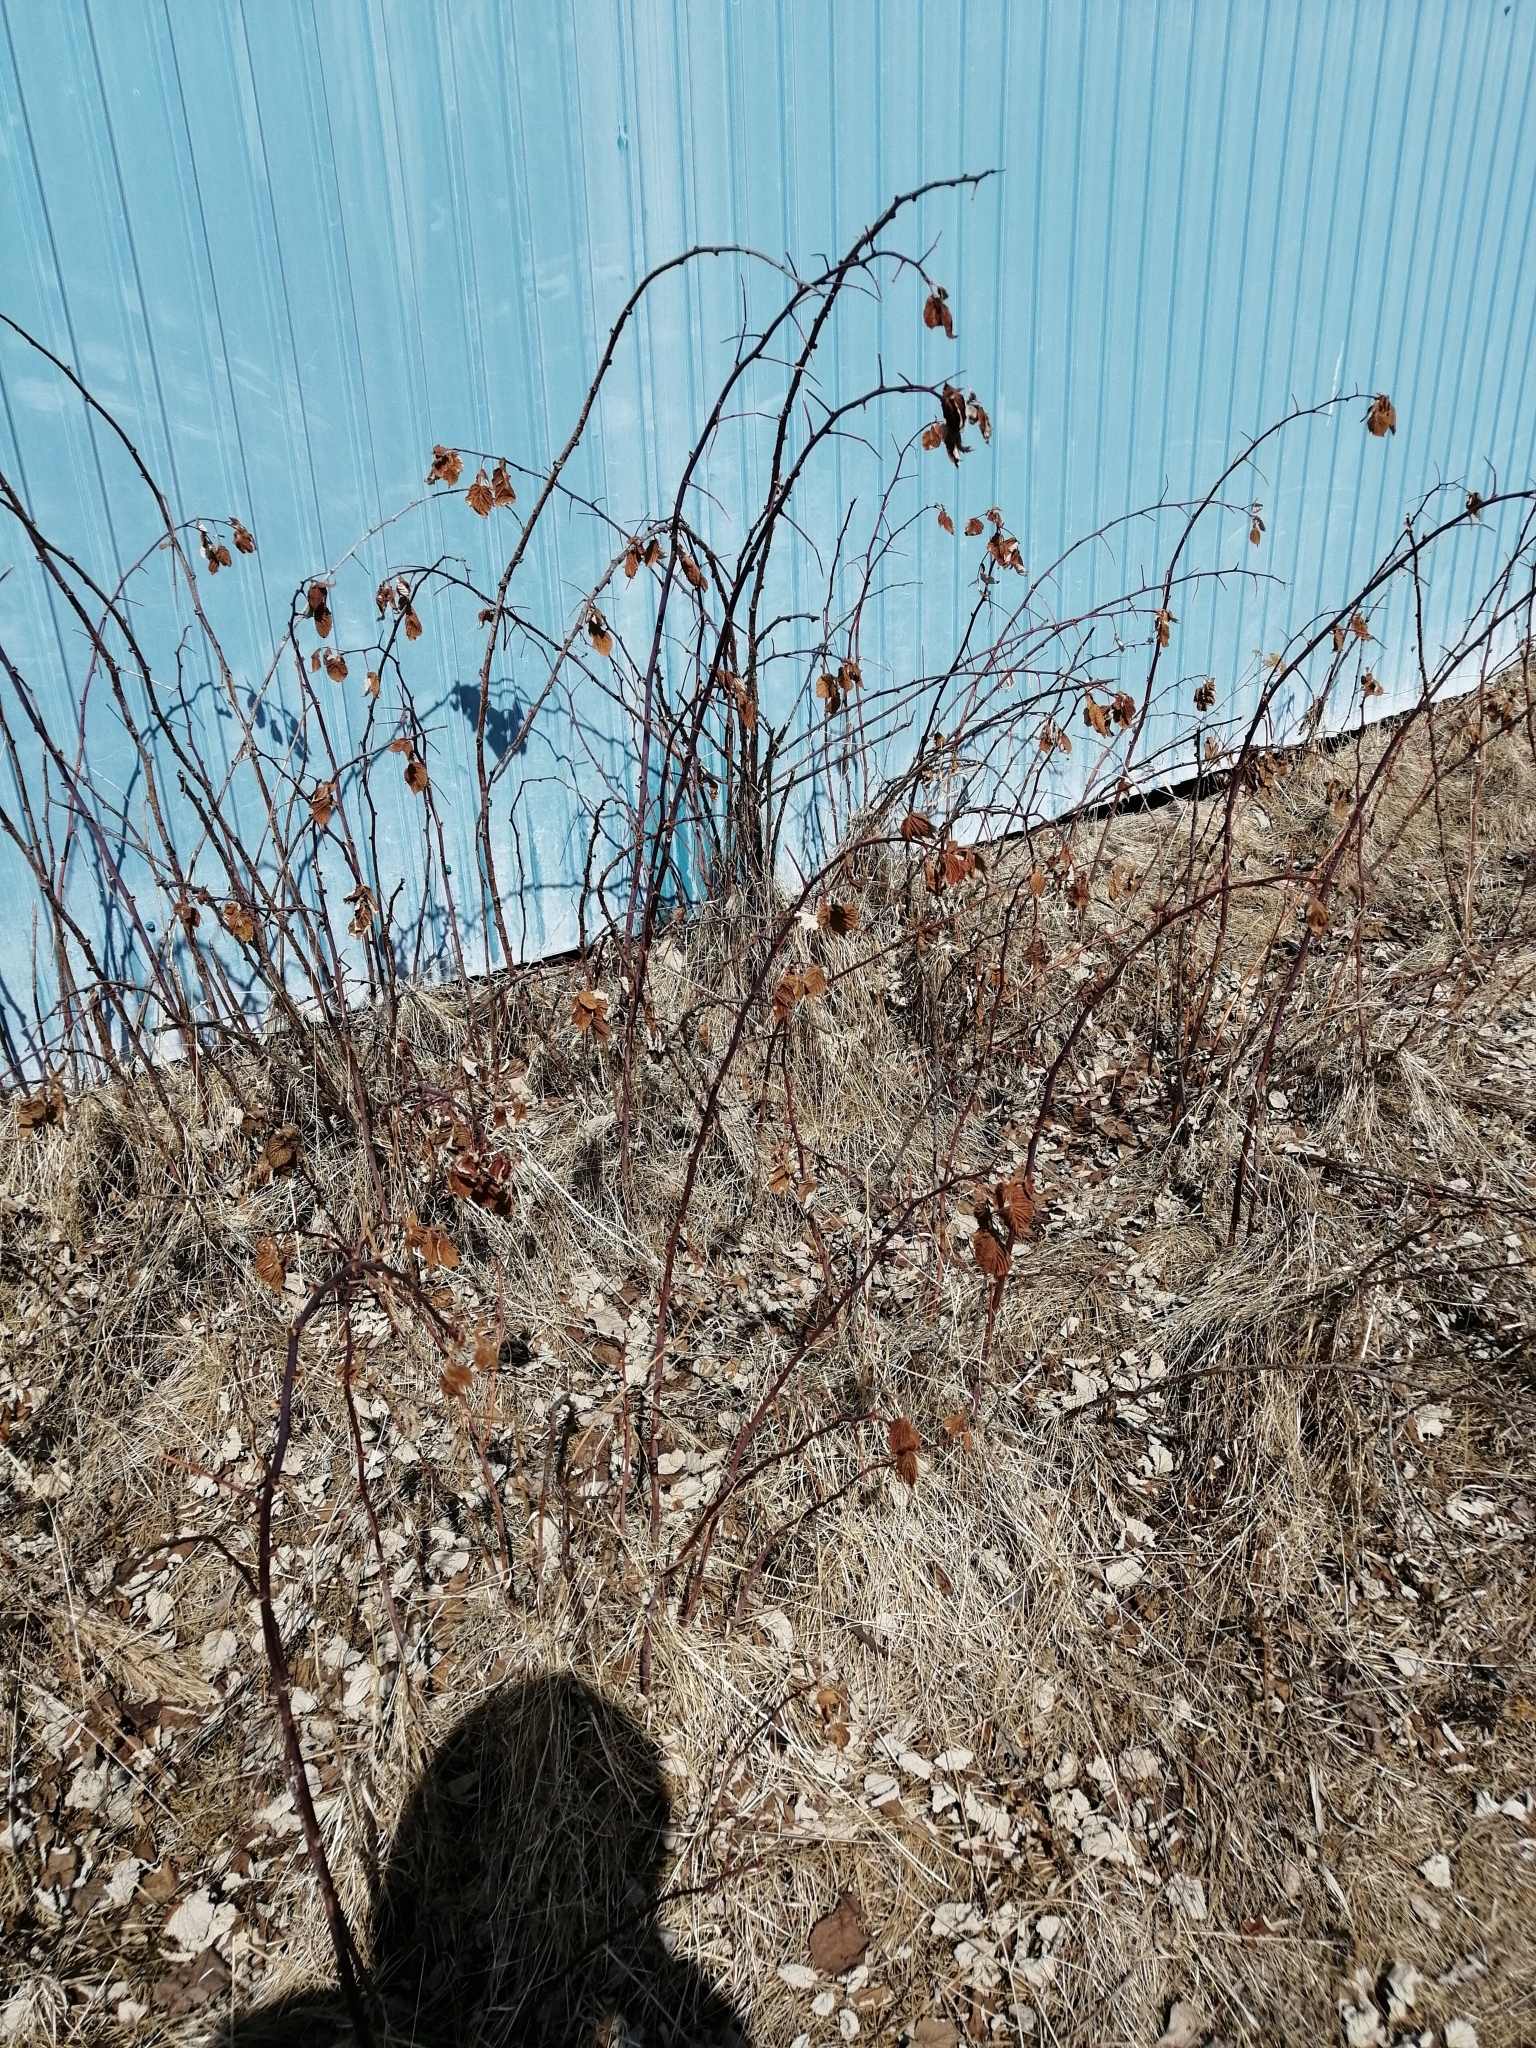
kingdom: Plantae
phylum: Tracheophyta
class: Magnoliopsida
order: Rosales
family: Rosaceae
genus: Rubus
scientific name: Rubus idaeus
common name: Raspberry
